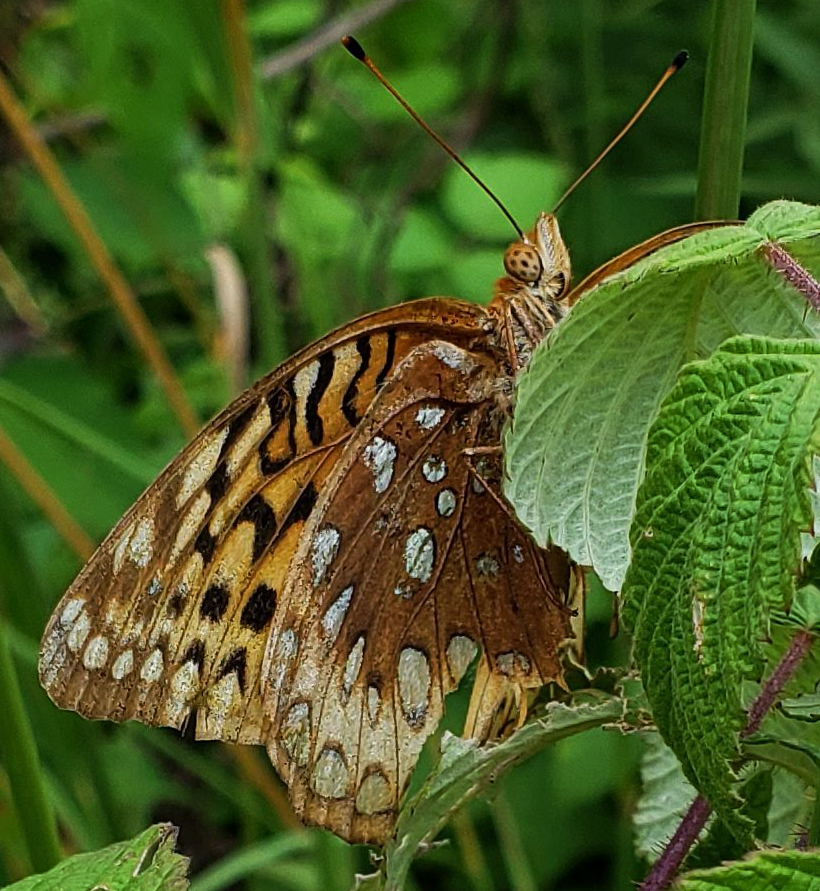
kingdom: Animalia
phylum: Arthropoda
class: Insecta
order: Lepidoptera
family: Nymphalidae
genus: Speyeria
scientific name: Speyeria cybele
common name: Great spangled fritillary
